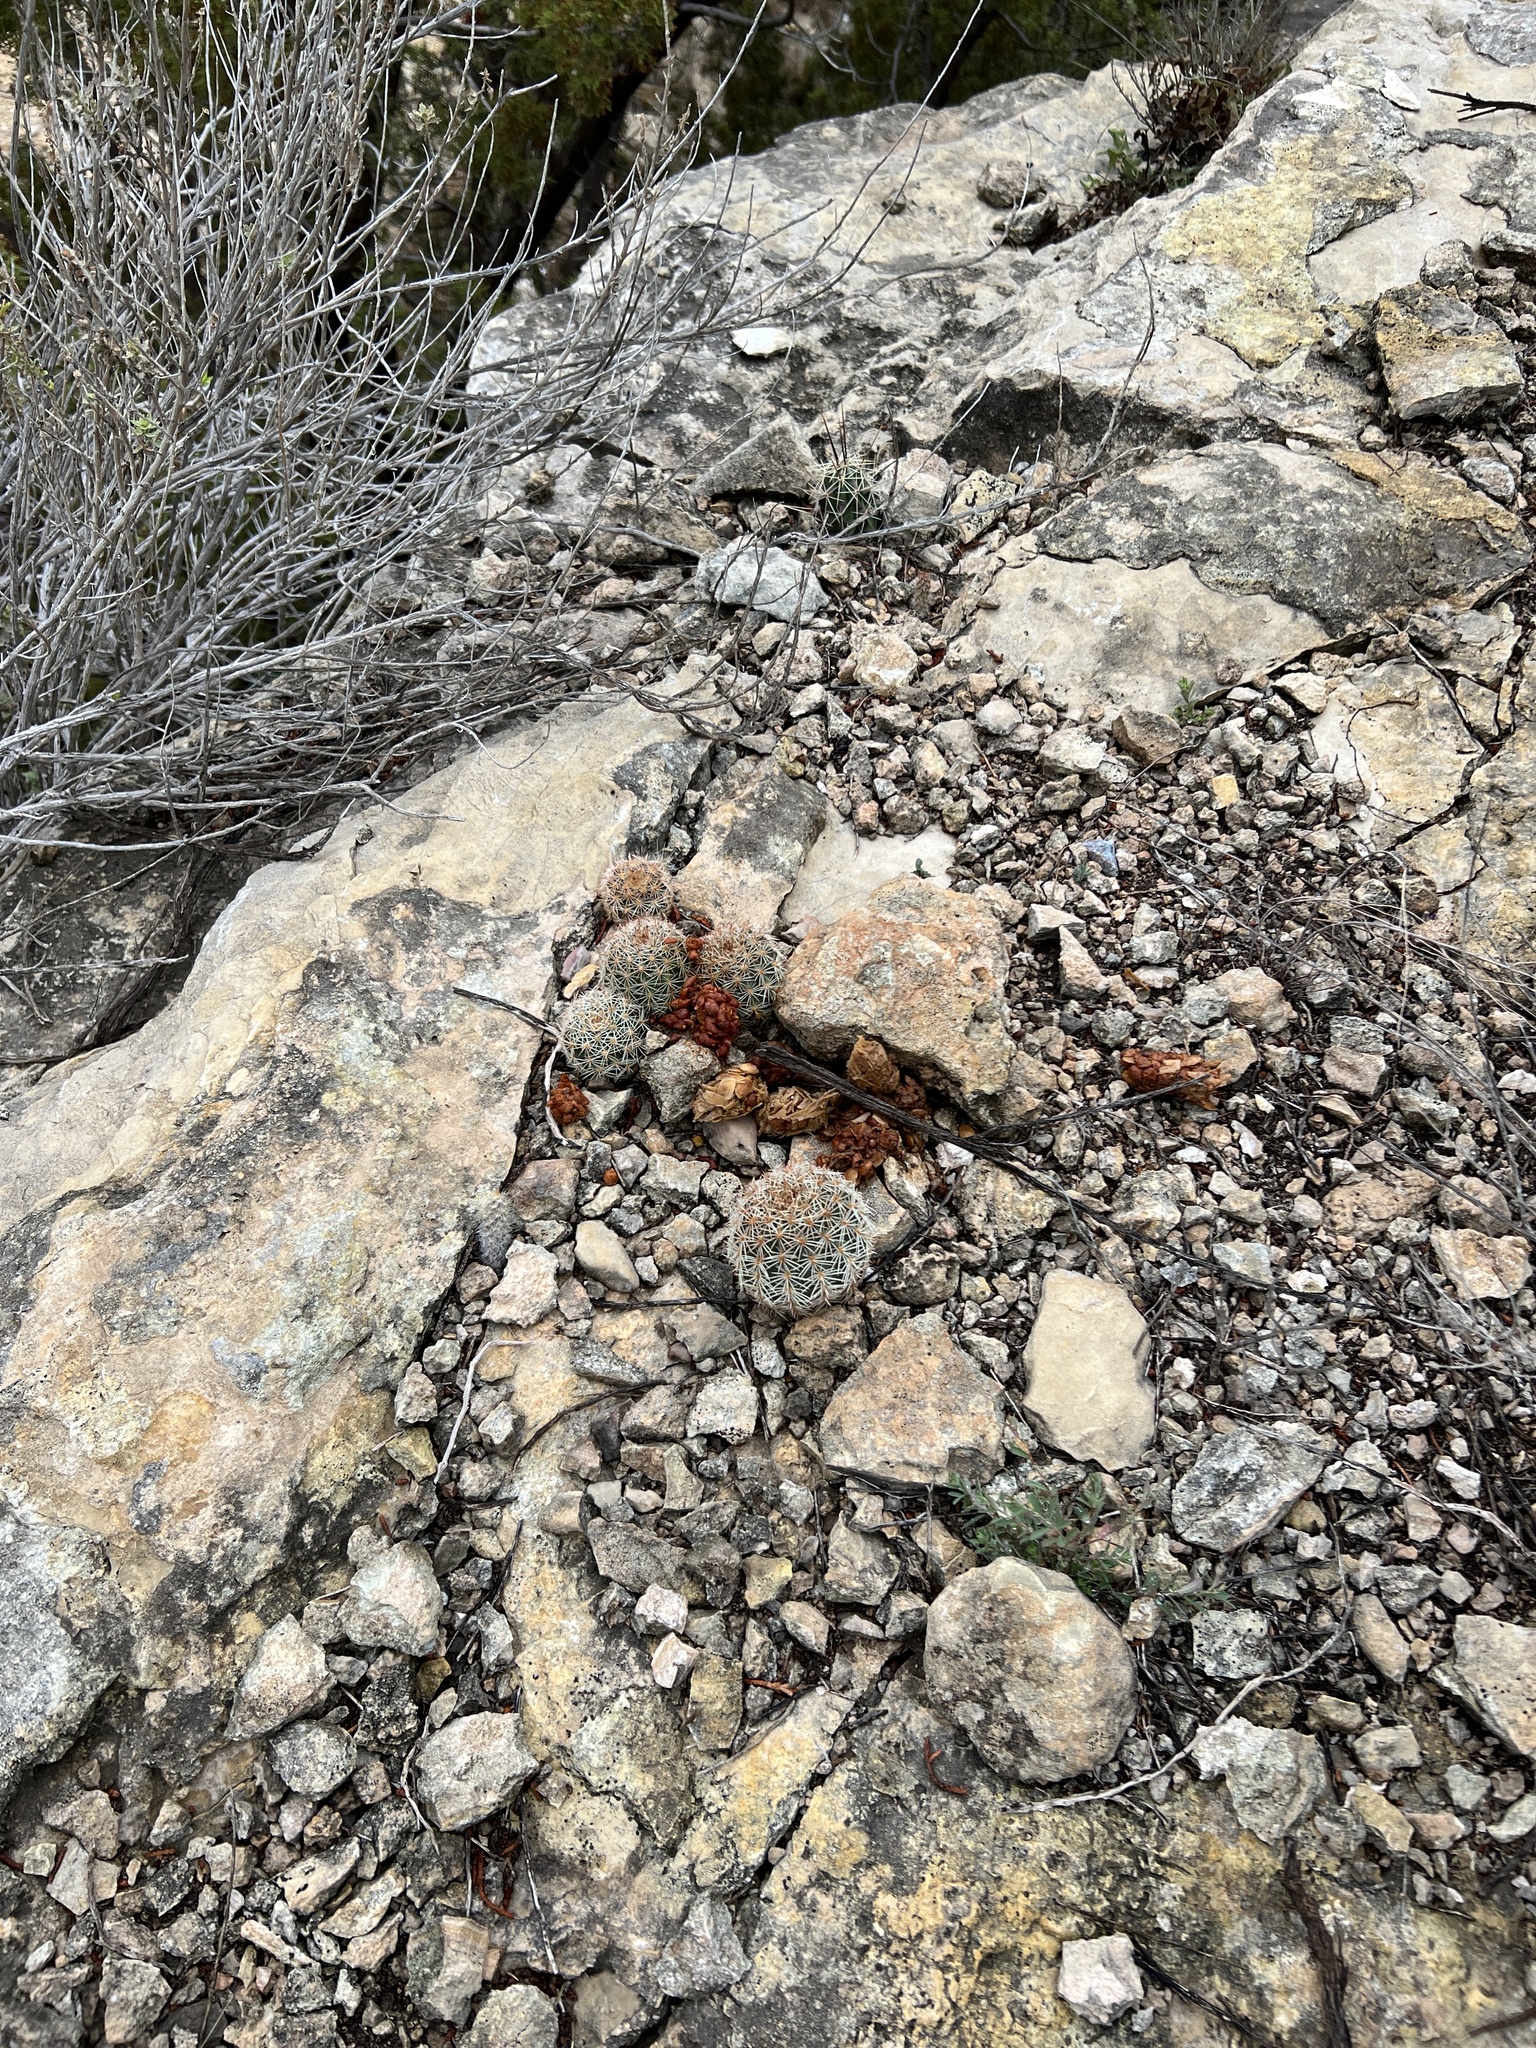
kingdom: Plantae
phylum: Tracheophyta
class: Magnoliopsida
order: Caryophyllales
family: Cactaceae
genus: Echinocereus
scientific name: Echinocereus pectinatus
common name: Rainbow cactus
